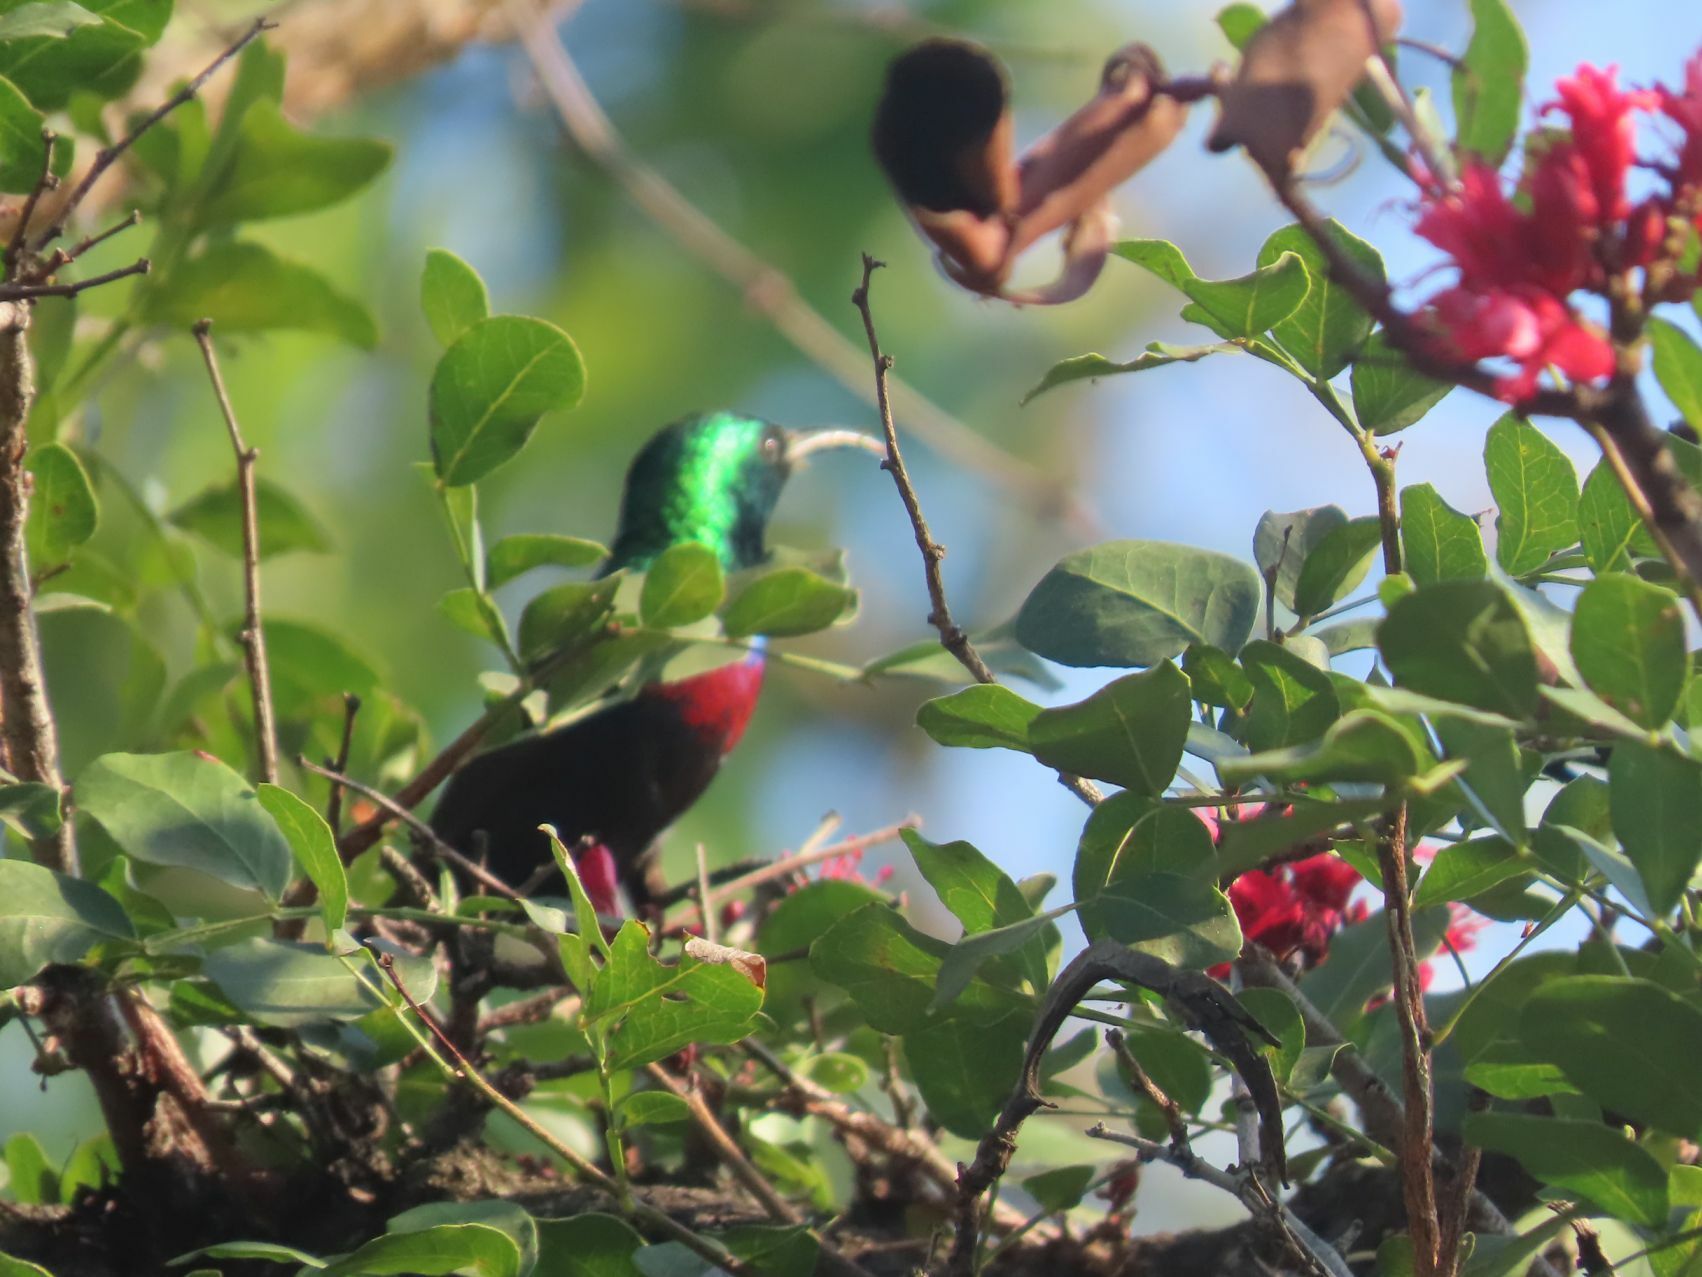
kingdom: Animalia
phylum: Chordata
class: Aves
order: Passeriformes
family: Nectariniidae
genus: Cinnyris
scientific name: Cinnyris mariquensis
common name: Marico sunbird
